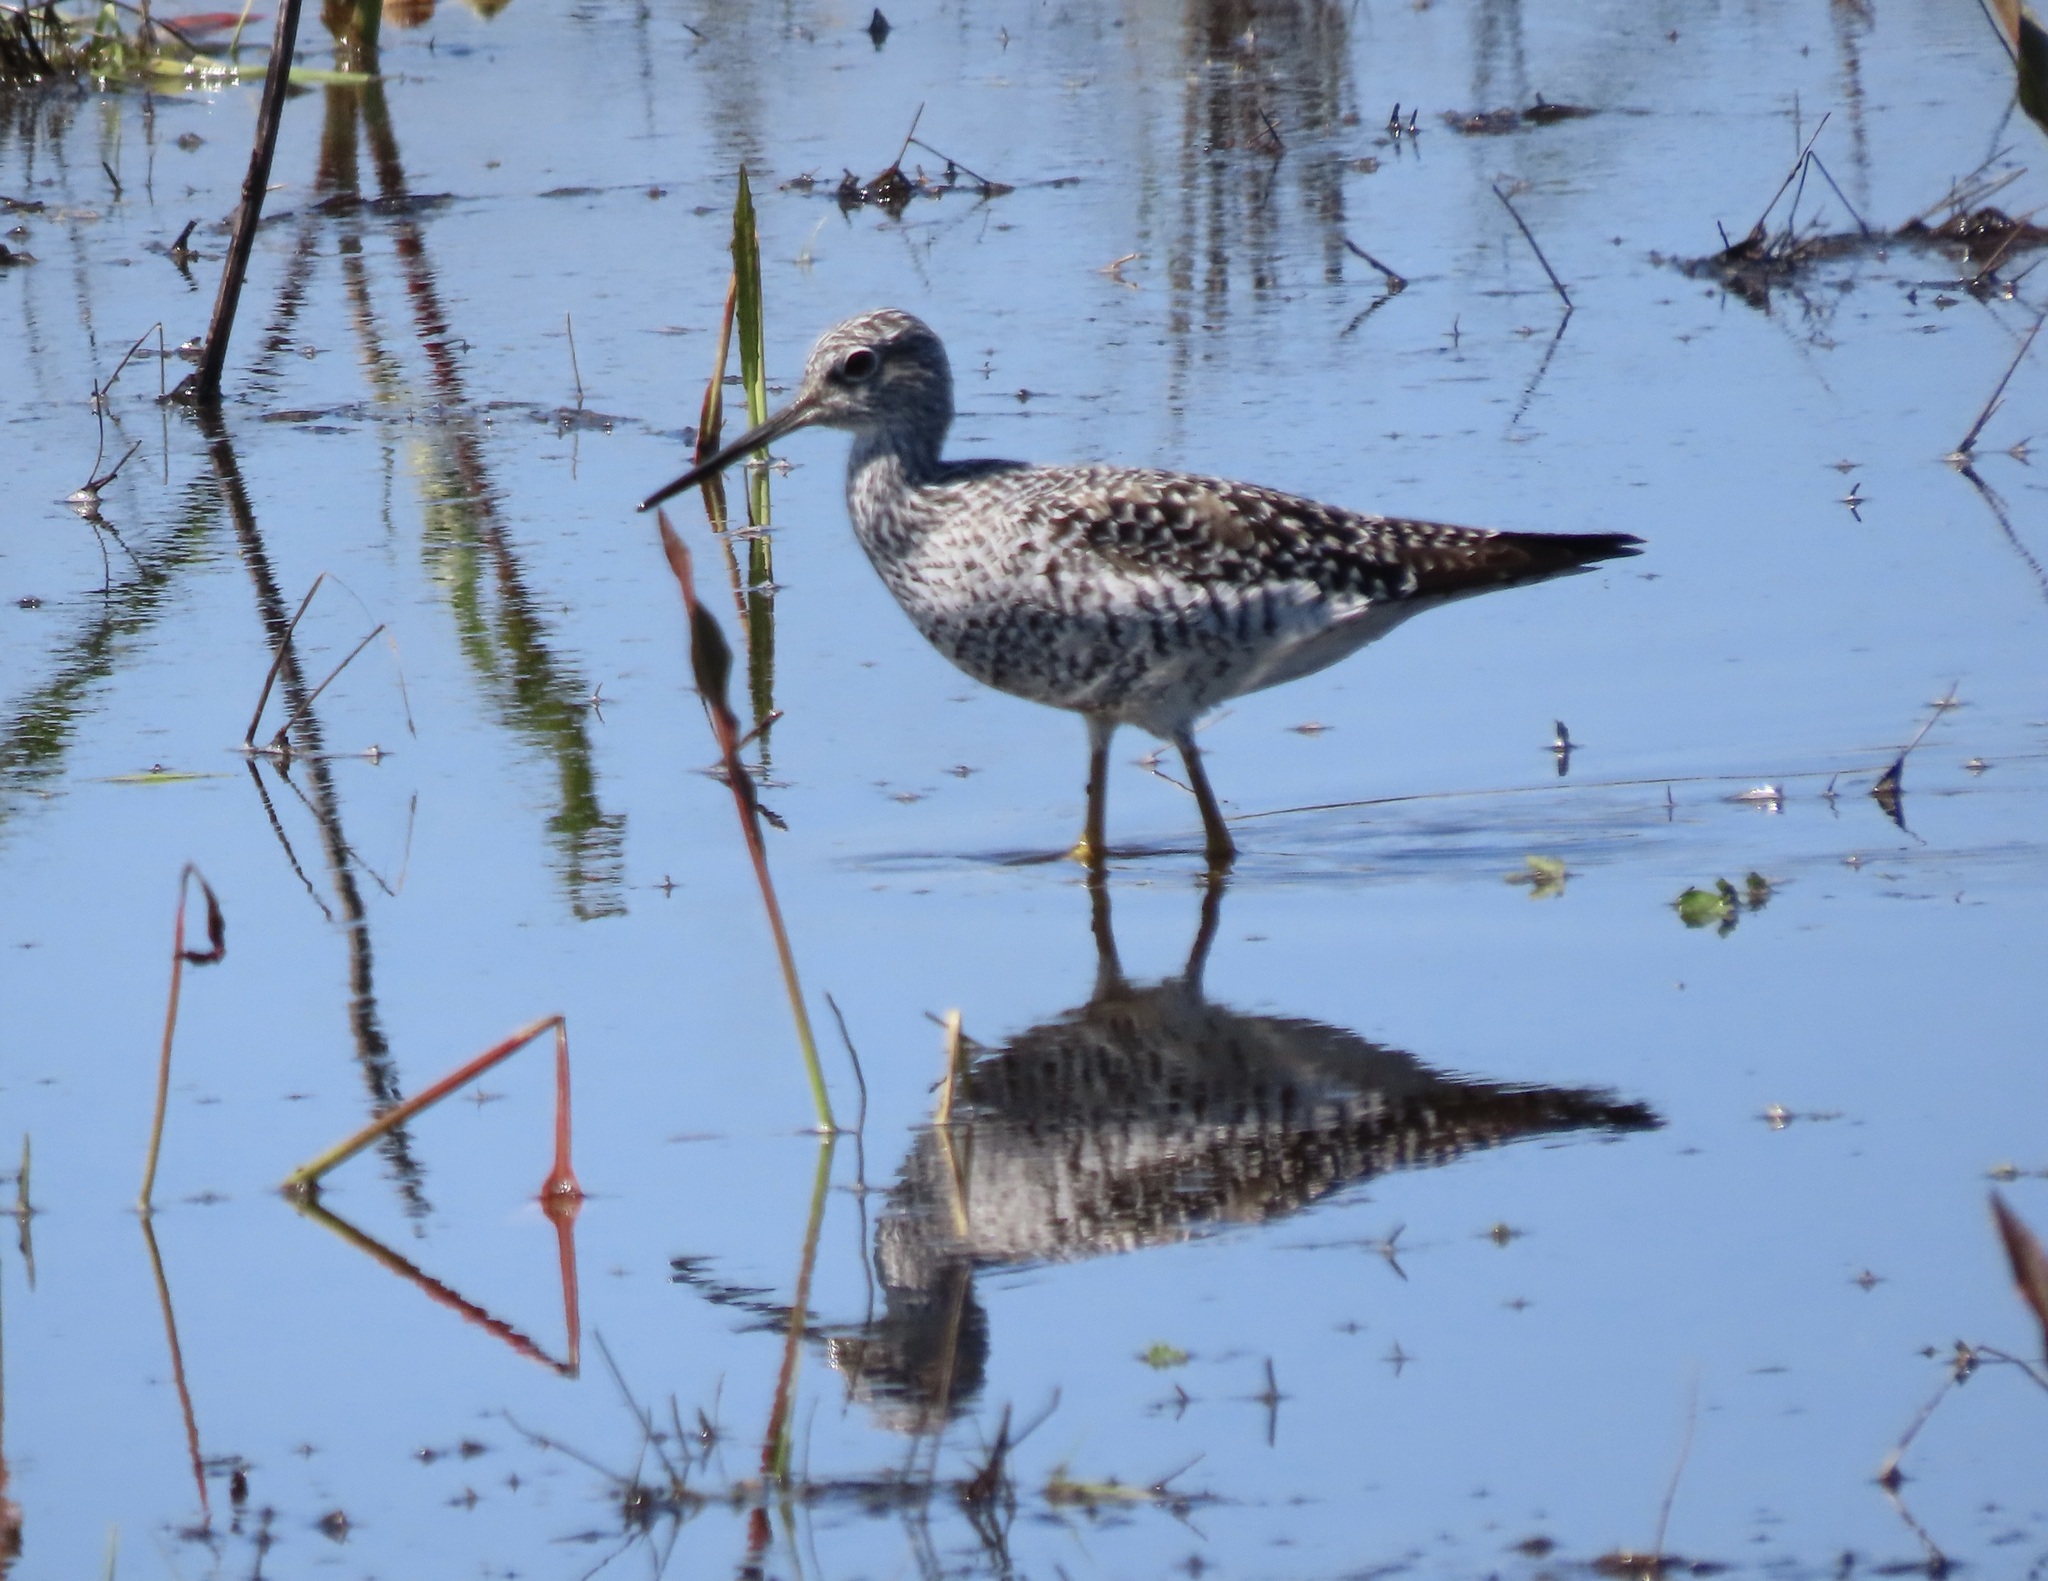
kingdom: Animalia
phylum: Chordata
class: Aves
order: Charadriiformes
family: Scolopacidae
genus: Tringa
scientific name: Tringa melanoleuca
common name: Greater yellowlegs
